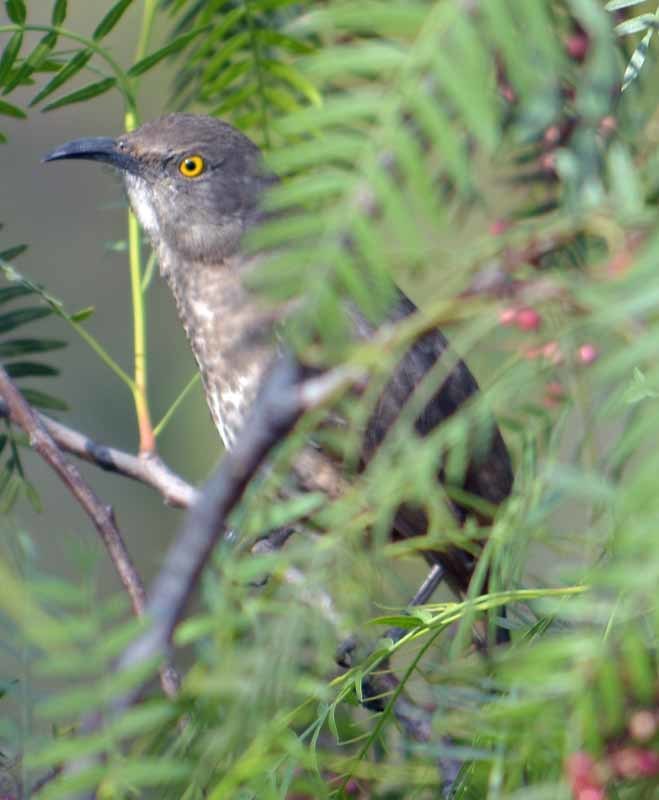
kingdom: Animalia
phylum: Chordata
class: Aves
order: Passeriformes
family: Mimidae
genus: Toxostoma
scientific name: Toxostoma curvirostre
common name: Curve-billed thrasher
